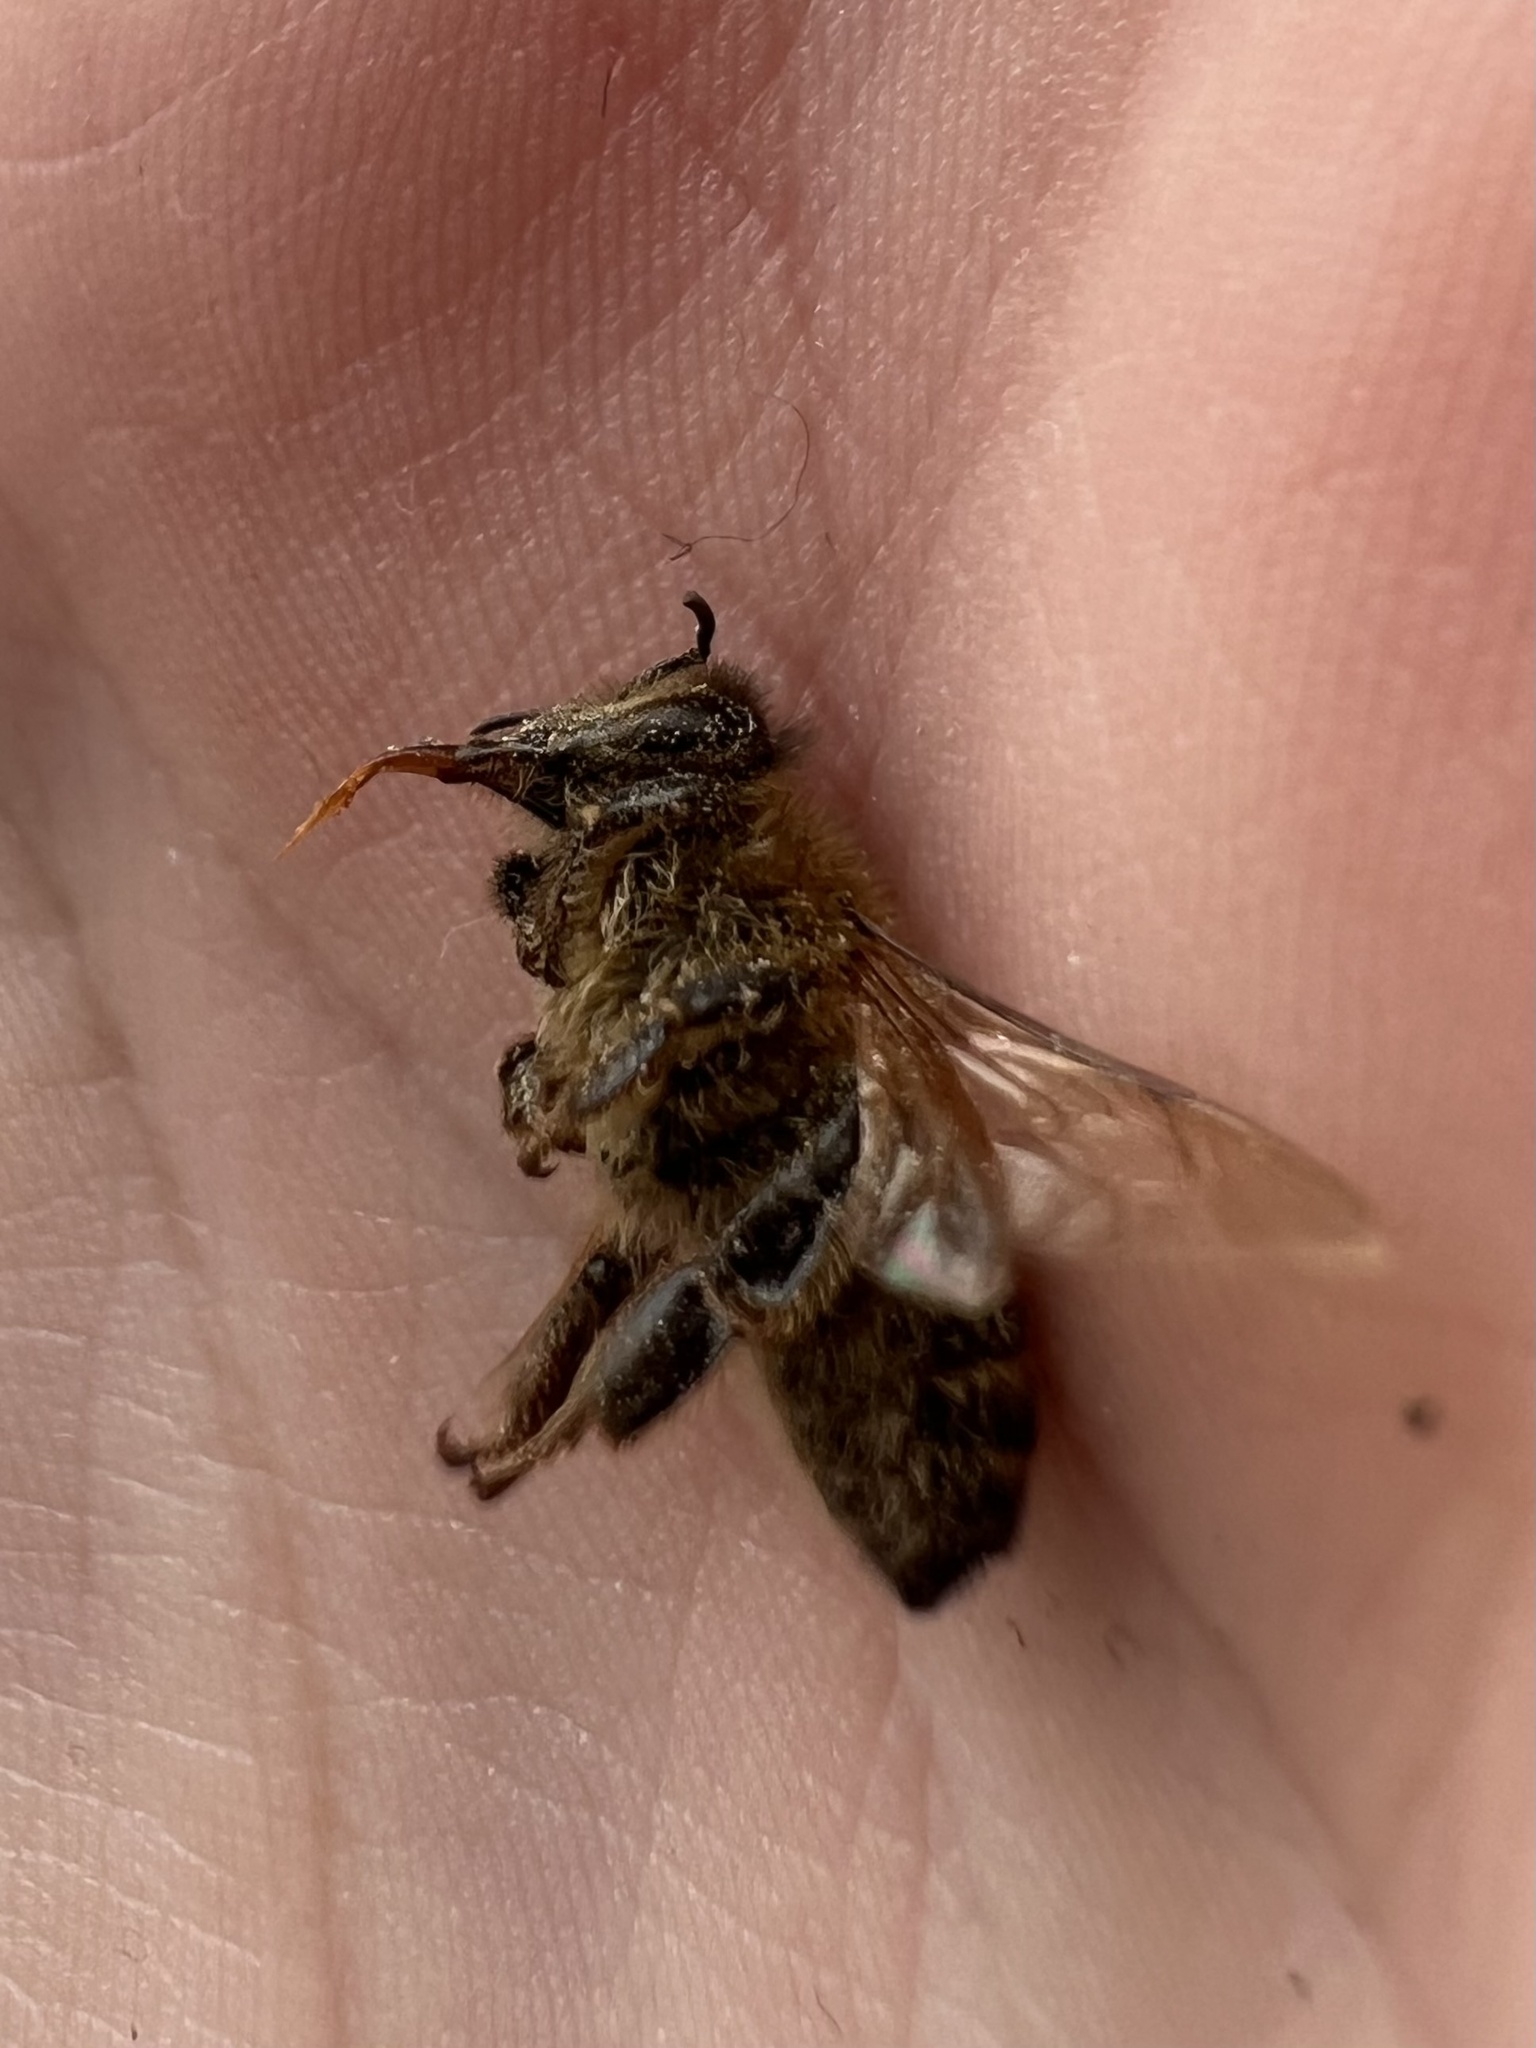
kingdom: Animalia
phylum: Arthropoda
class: Insecta
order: Hymenoptera
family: Apidae
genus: Apis
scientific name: Apis mellifera
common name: Honey bee
